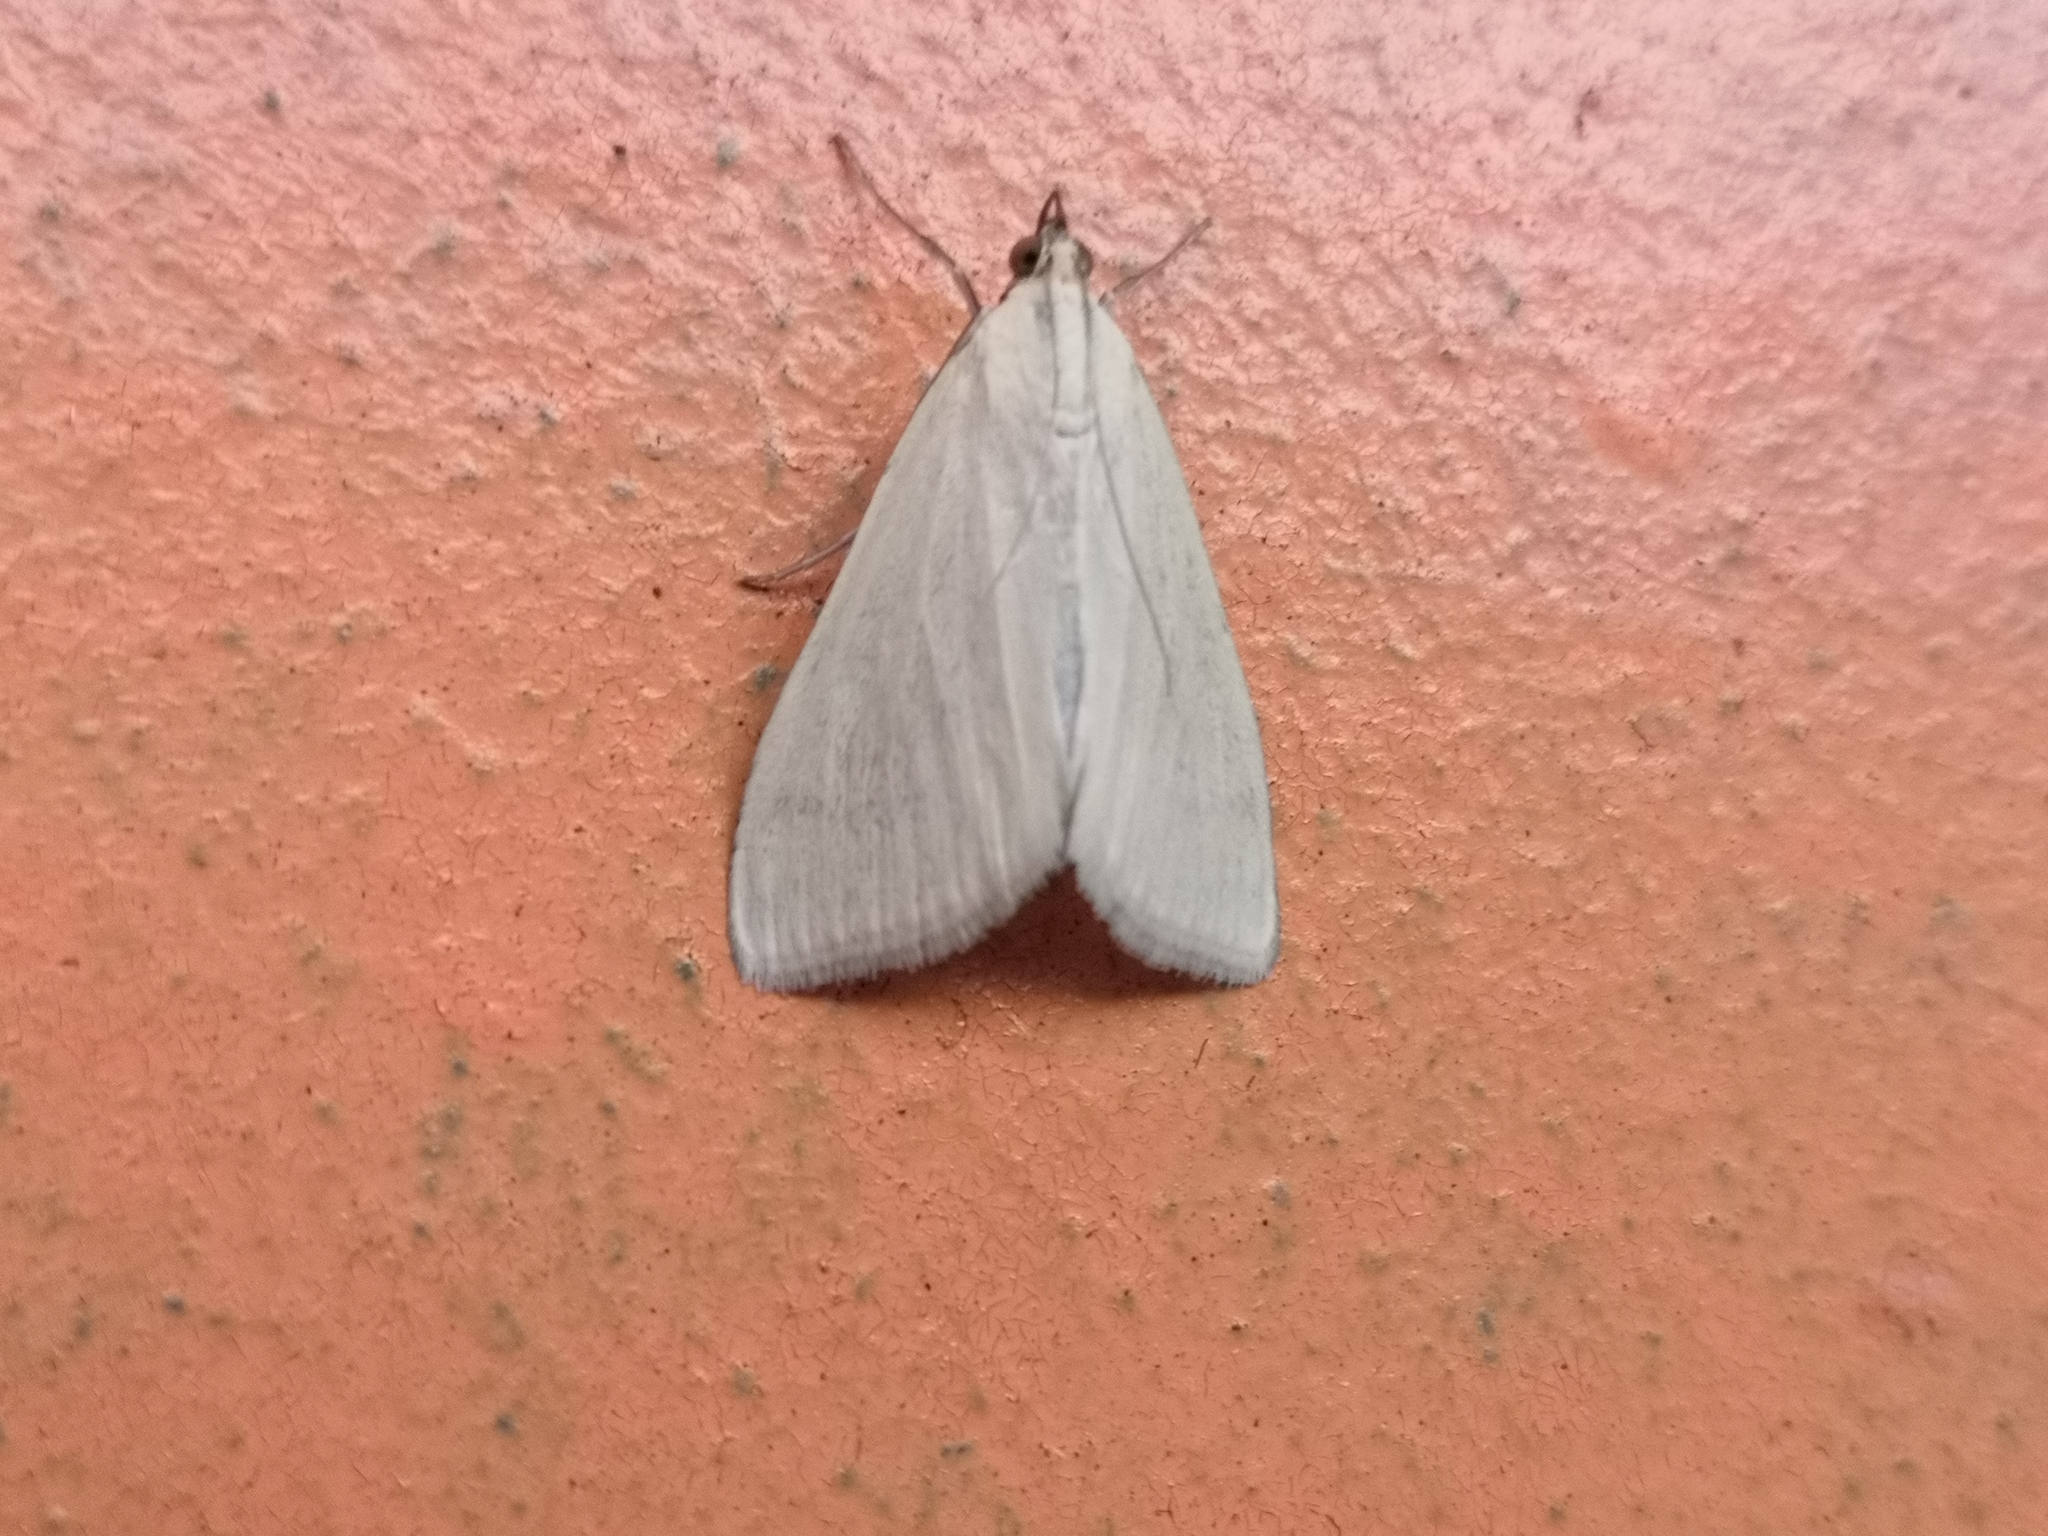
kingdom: Animalia
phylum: Arthropoda
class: Insecta
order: Lepidoptera
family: Crambidae
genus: Sitochroa
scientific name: Sitochroa palealis
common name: Greenish-yellow sitochroa moth
